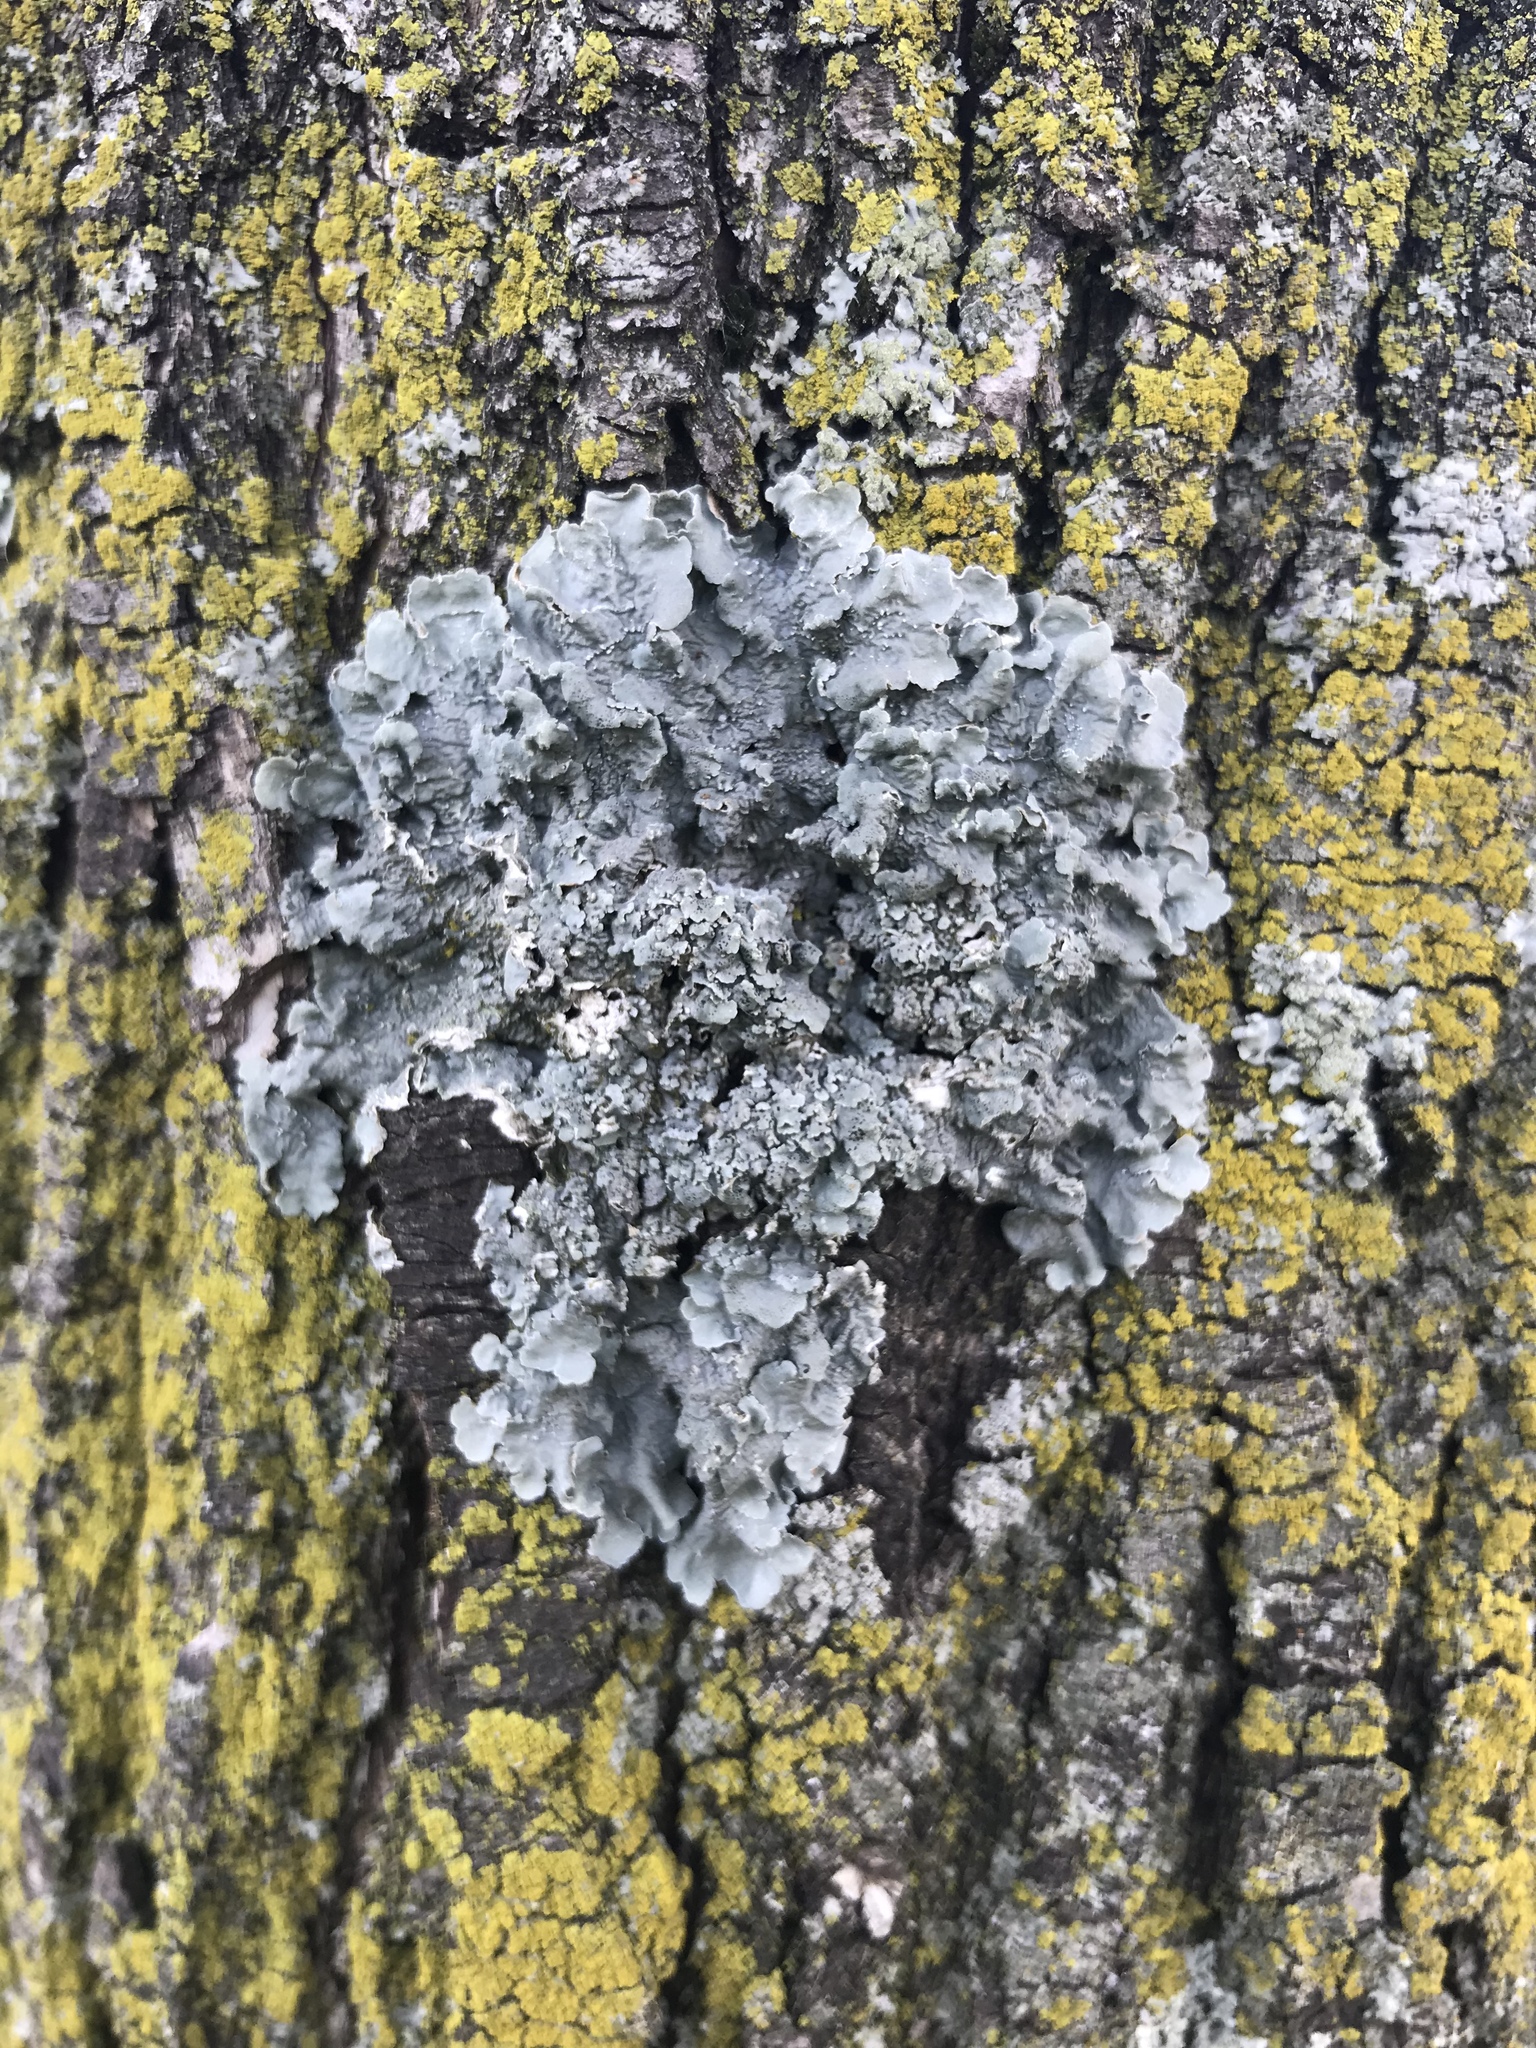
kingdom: Fungi
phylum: Ascomycota
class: Lecanoromycetes
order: Lecanorales
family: Parmeliaceae
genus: Punctelia
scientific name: Punctelia bolliana
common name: Eastern speckled shield lichen
